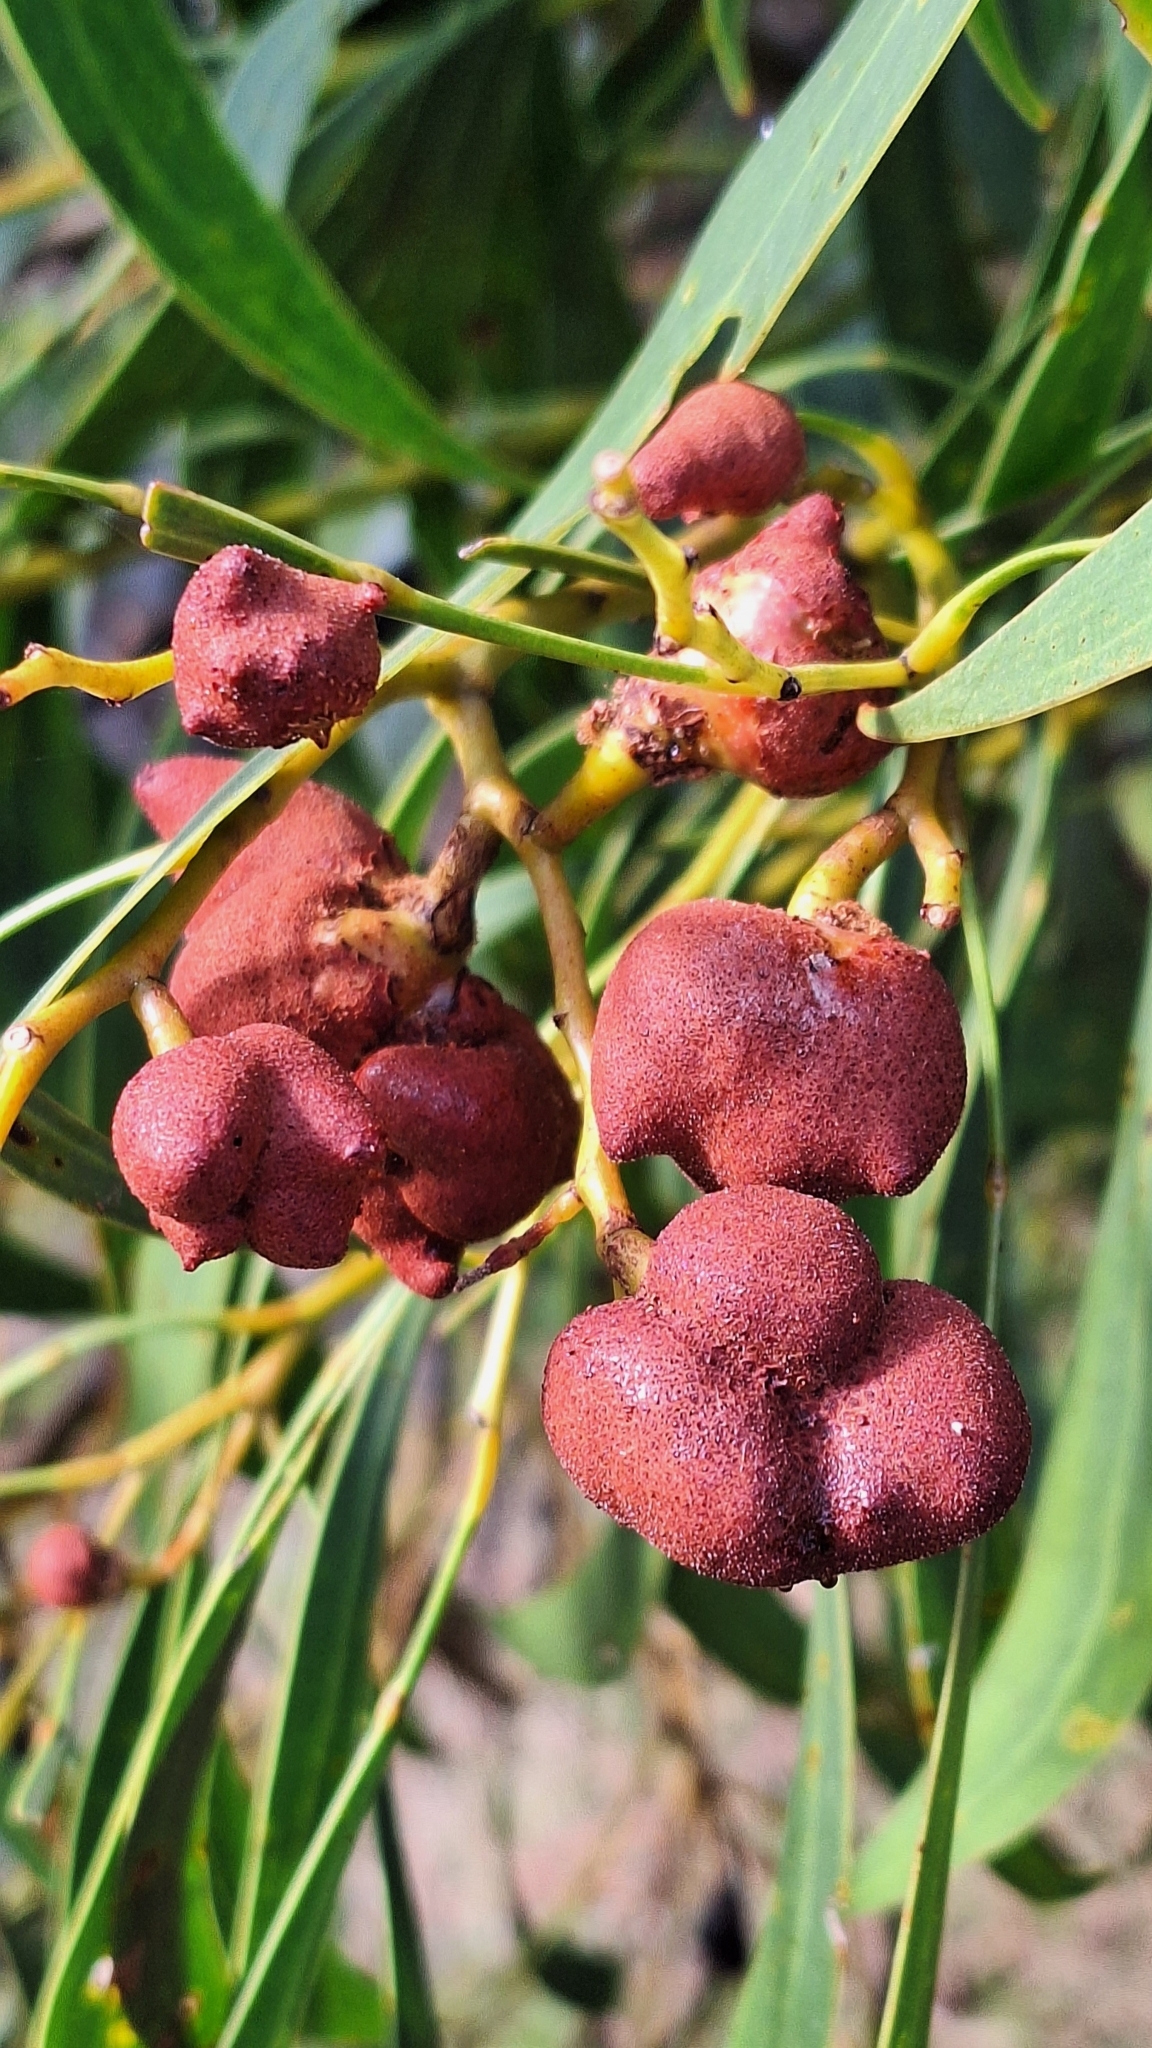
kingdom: Fungi
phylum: Basidiomycota
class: Pucciniomycetes
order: Pucciniales
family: Uromycladiaceae
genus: Uromycladium
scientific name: Uromycladium
